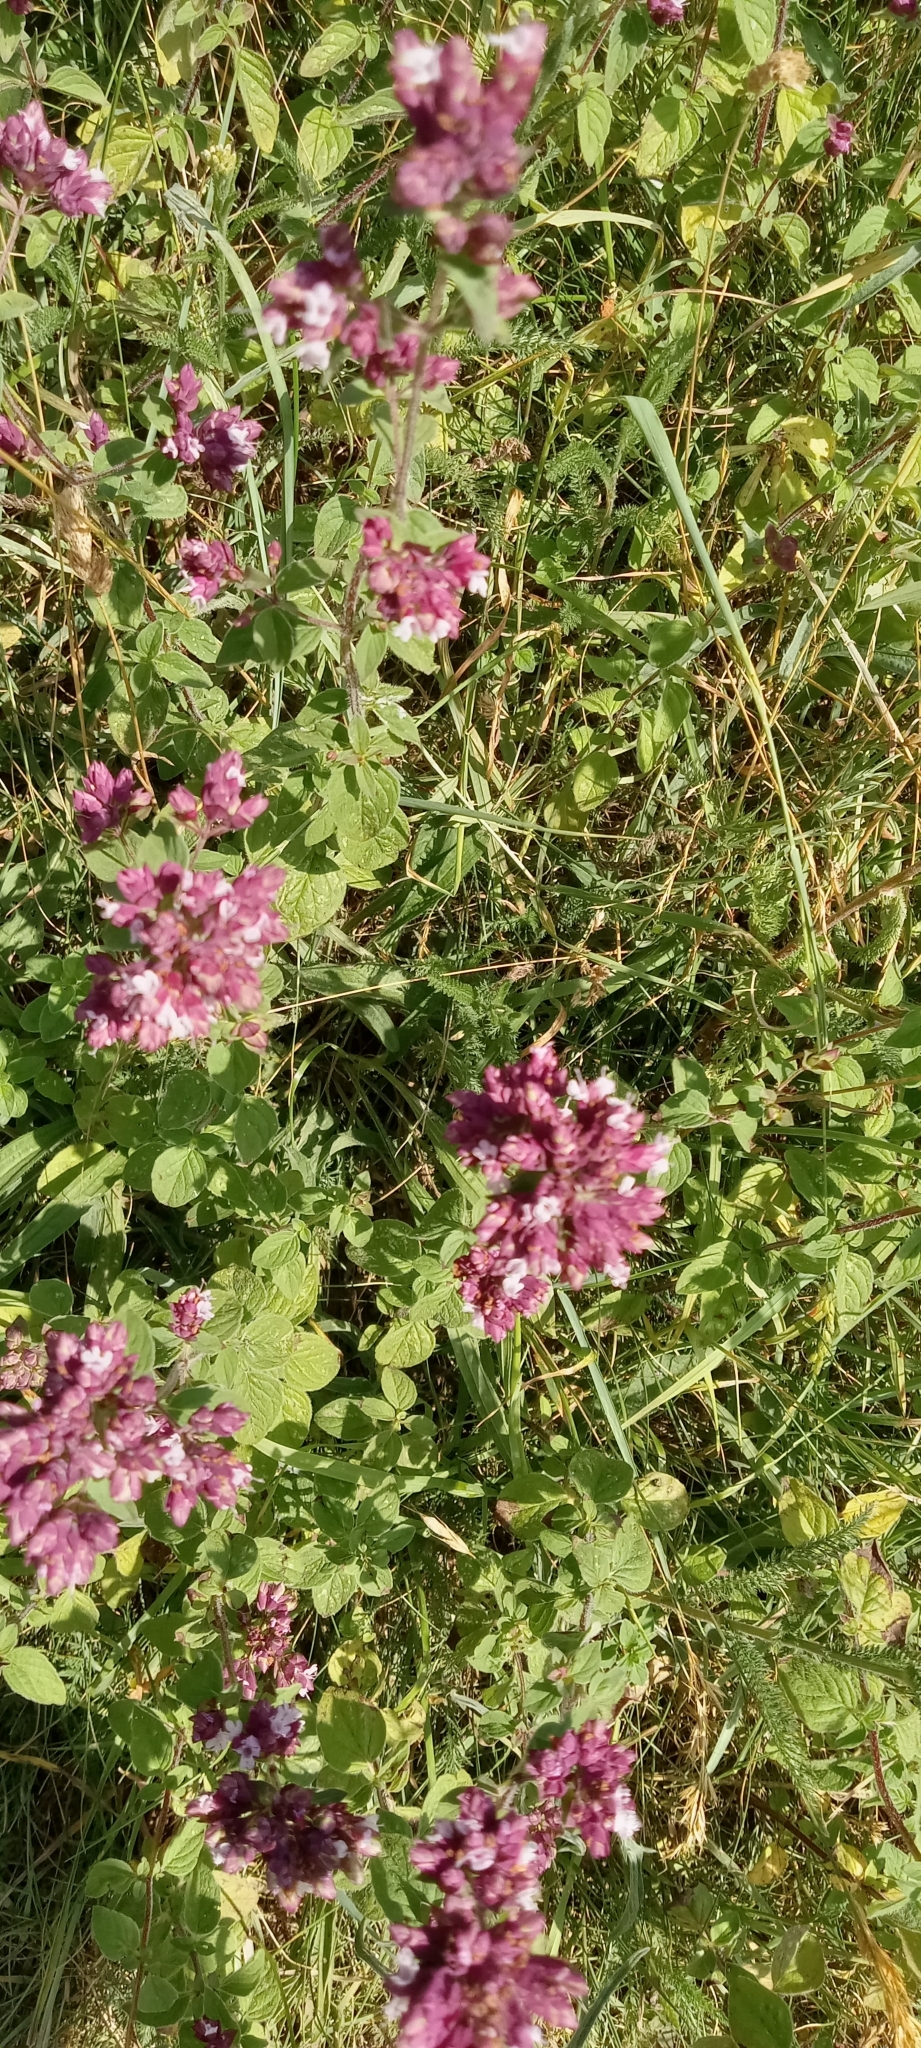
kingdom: Plantae
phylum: Tracheophyta
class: Magnoliopsida
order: Lamiales
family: Lamiaceae
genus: Origanum
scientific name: Origanum vulgare
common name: Wild marjoram
